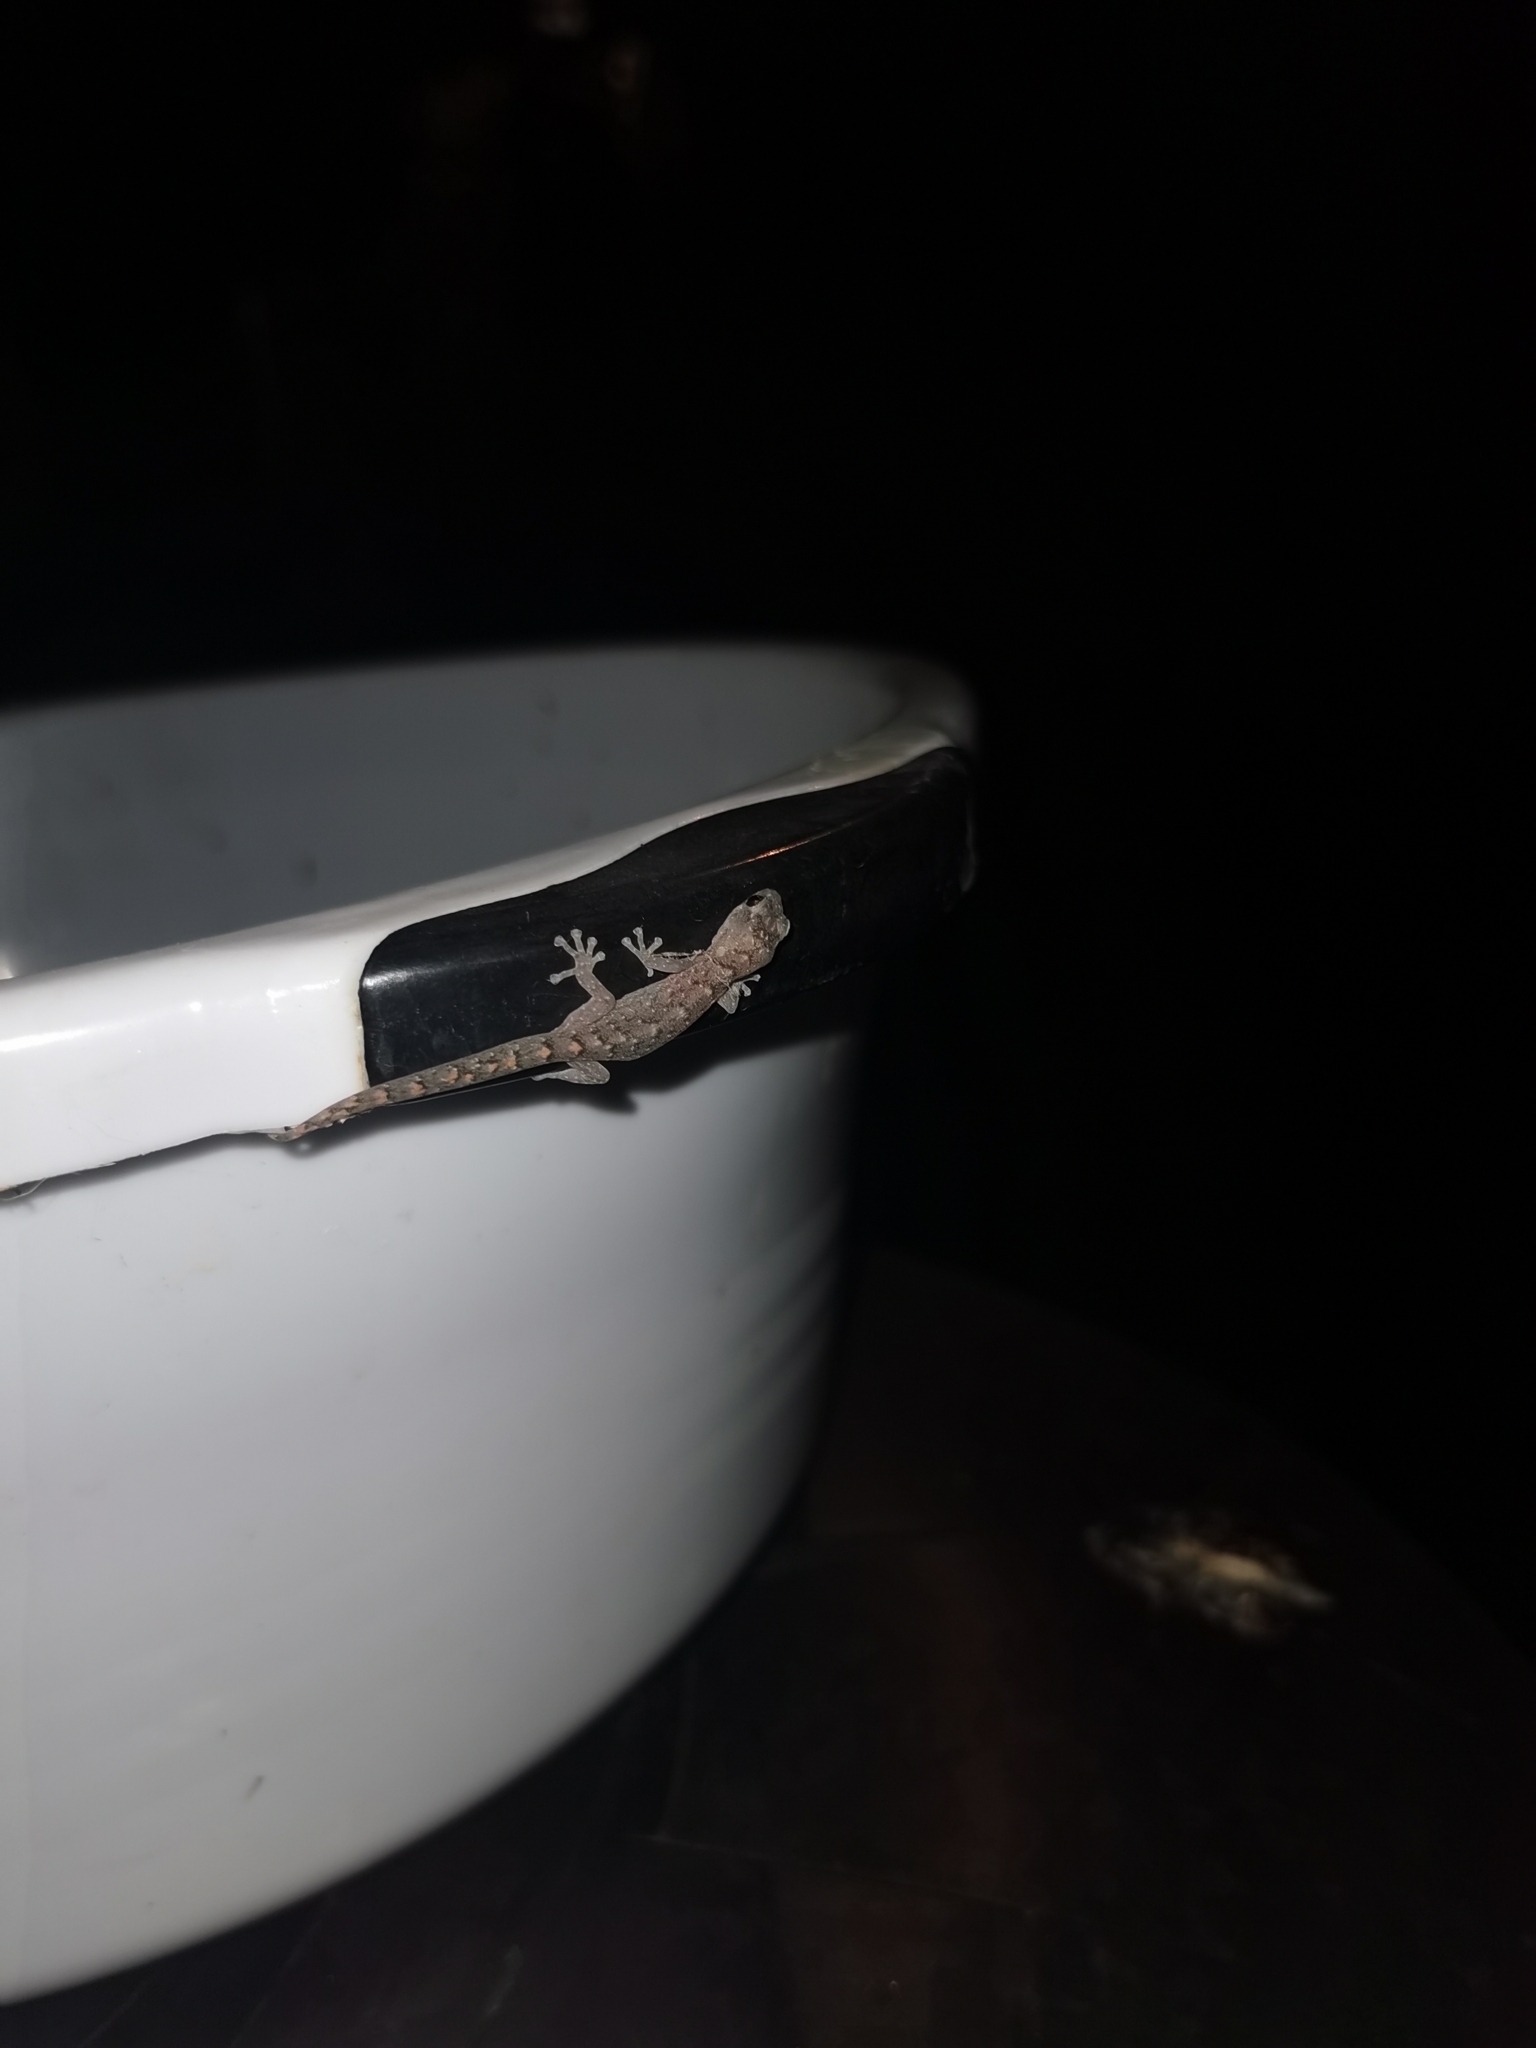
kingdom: Animalia
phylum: Chordata
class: Squamata
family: Gekkonidae
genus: Christinus
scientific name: Christinus marmoratus
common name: Marbled gecko
